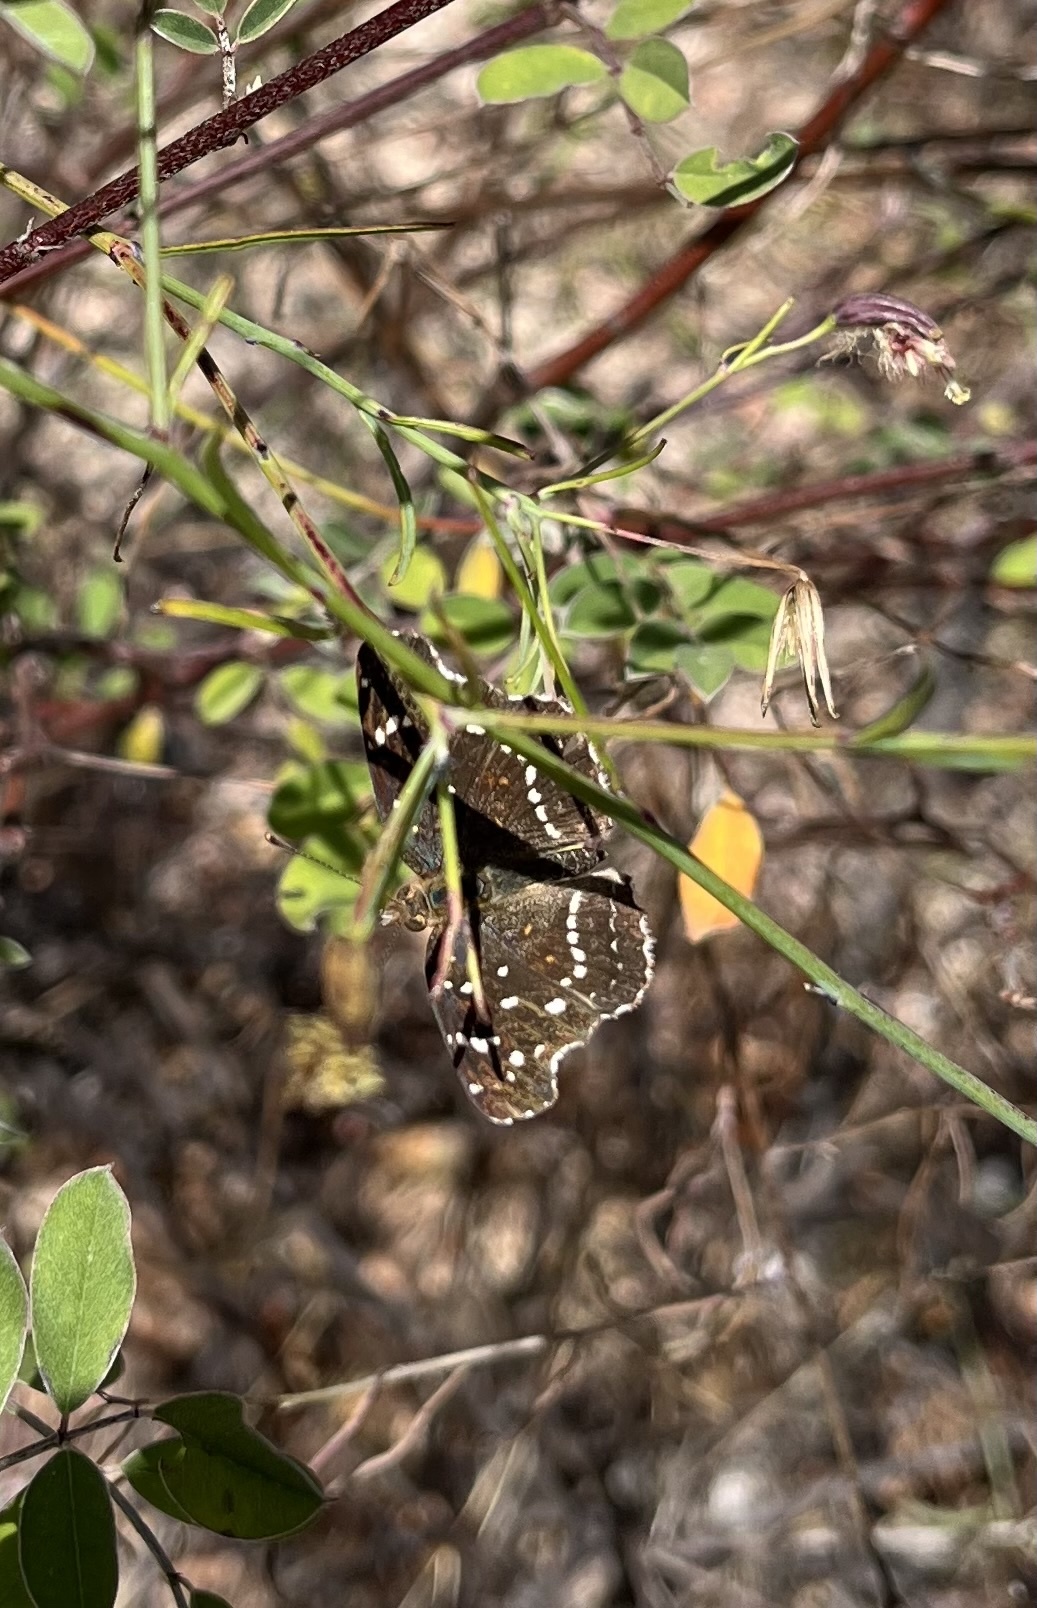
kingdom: Animalia
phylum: Arthropoda
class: Insecta
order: Lepidoptera
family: Nymphalidae
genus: Anthanassa
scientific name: Anthanassa texana
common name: Texan crescent
